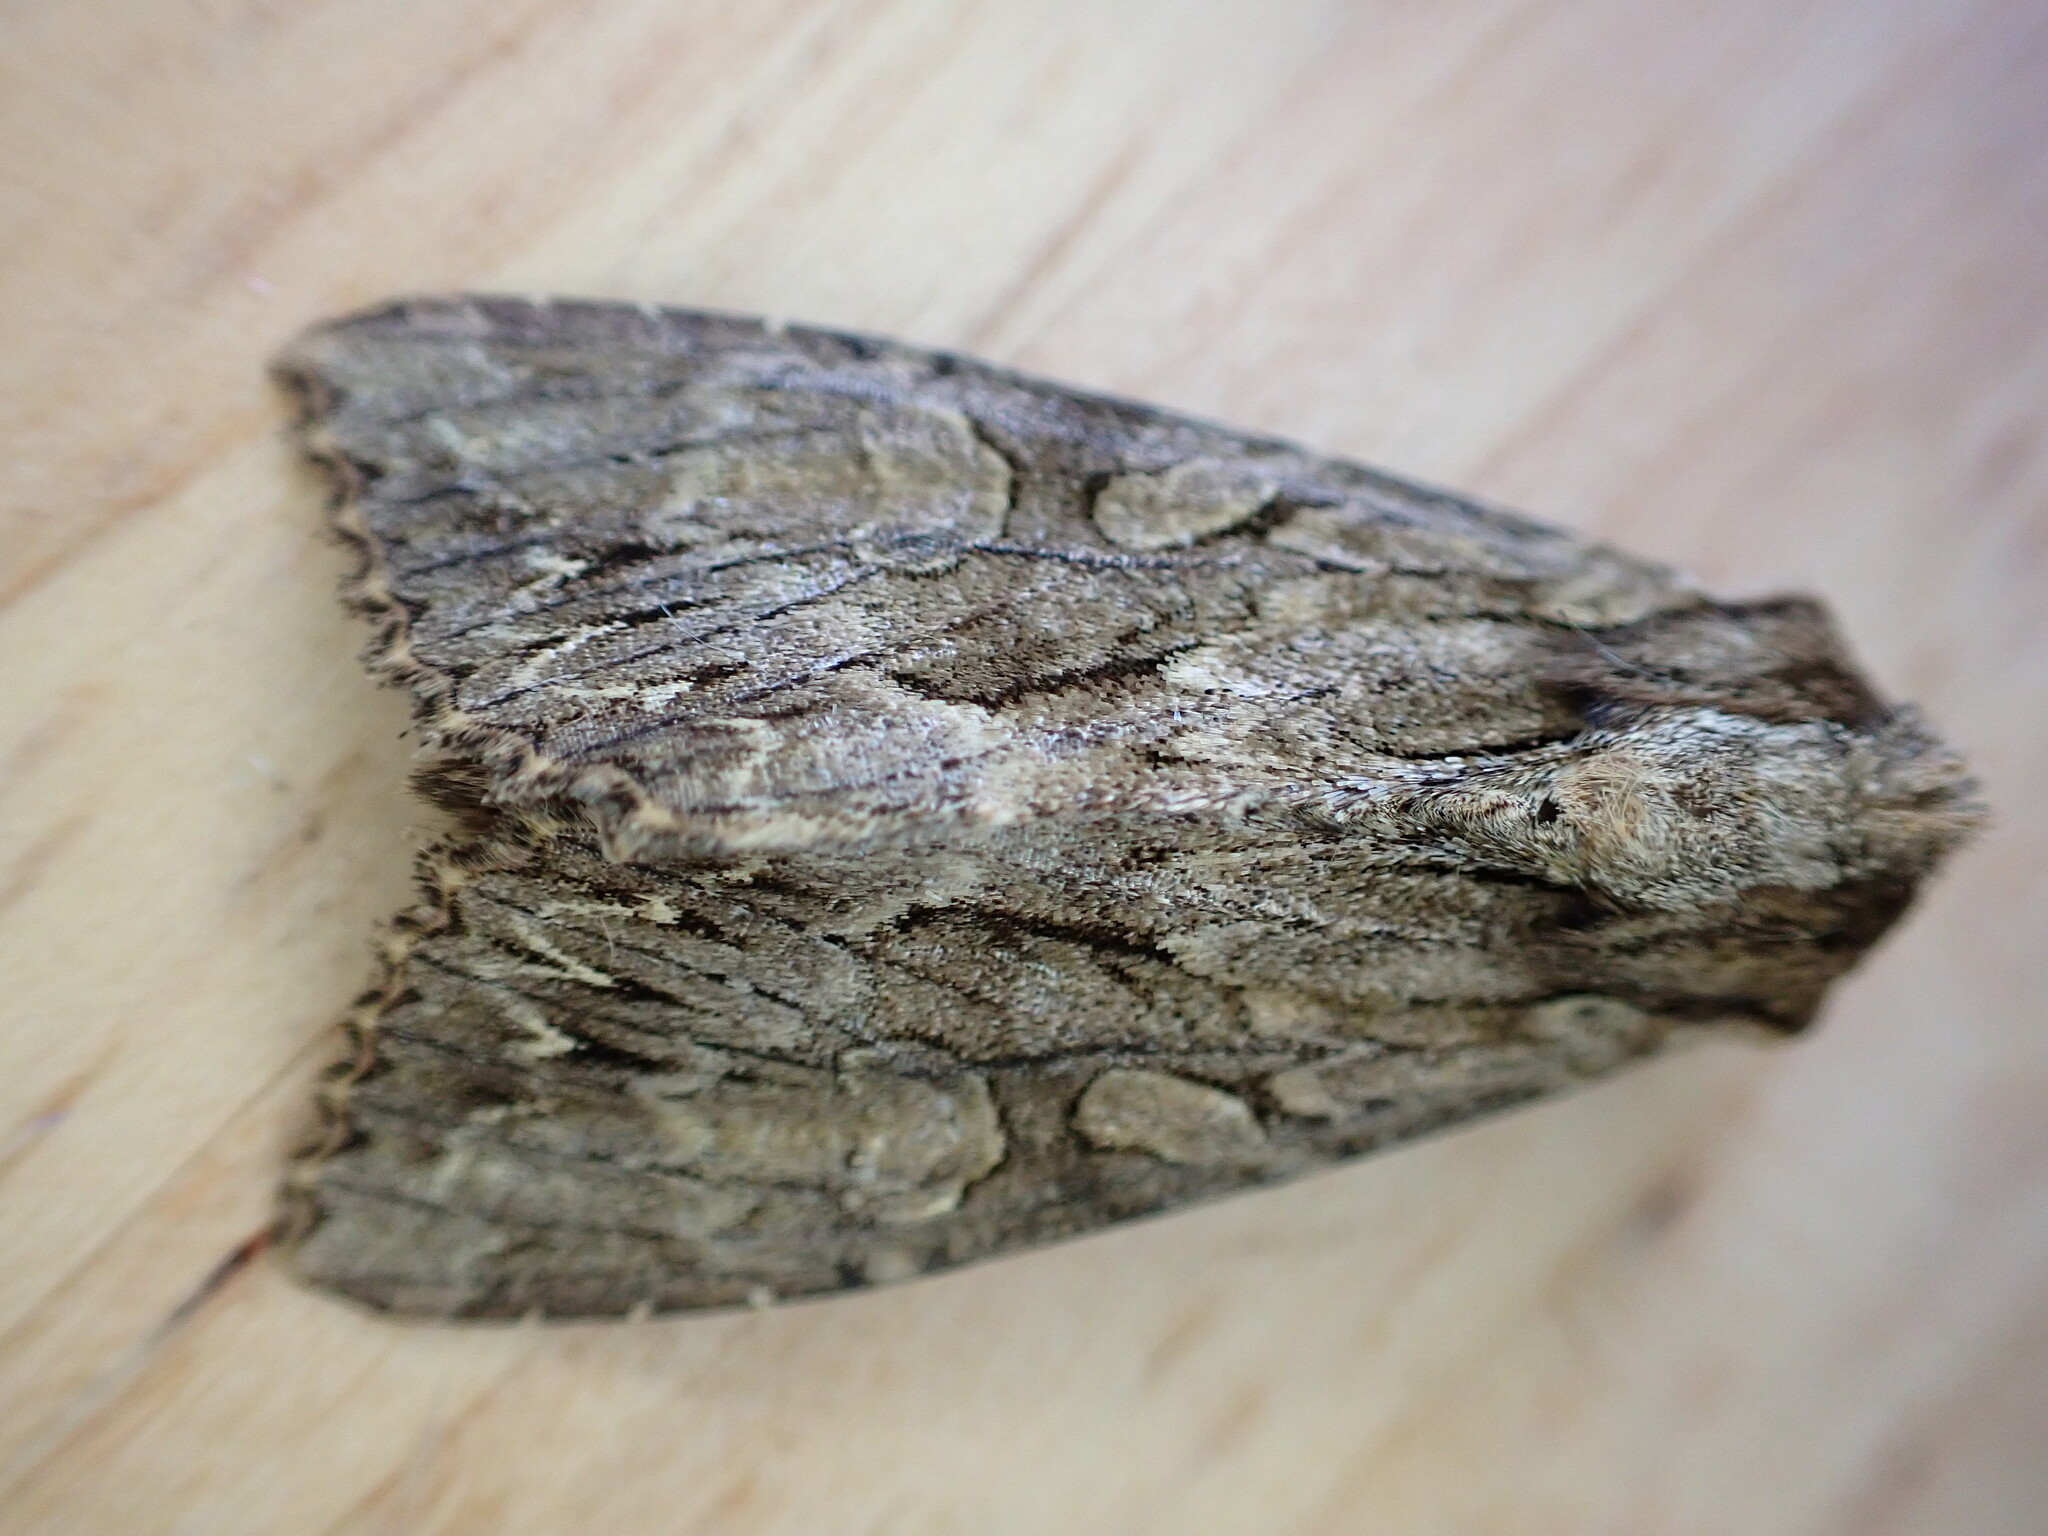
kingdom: Animalia
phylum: Arthropoda
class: Insecta
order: Lepidoptera
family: Noctuidae
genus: Apamea
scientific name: Apamea monoglypha
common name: Dark arches
